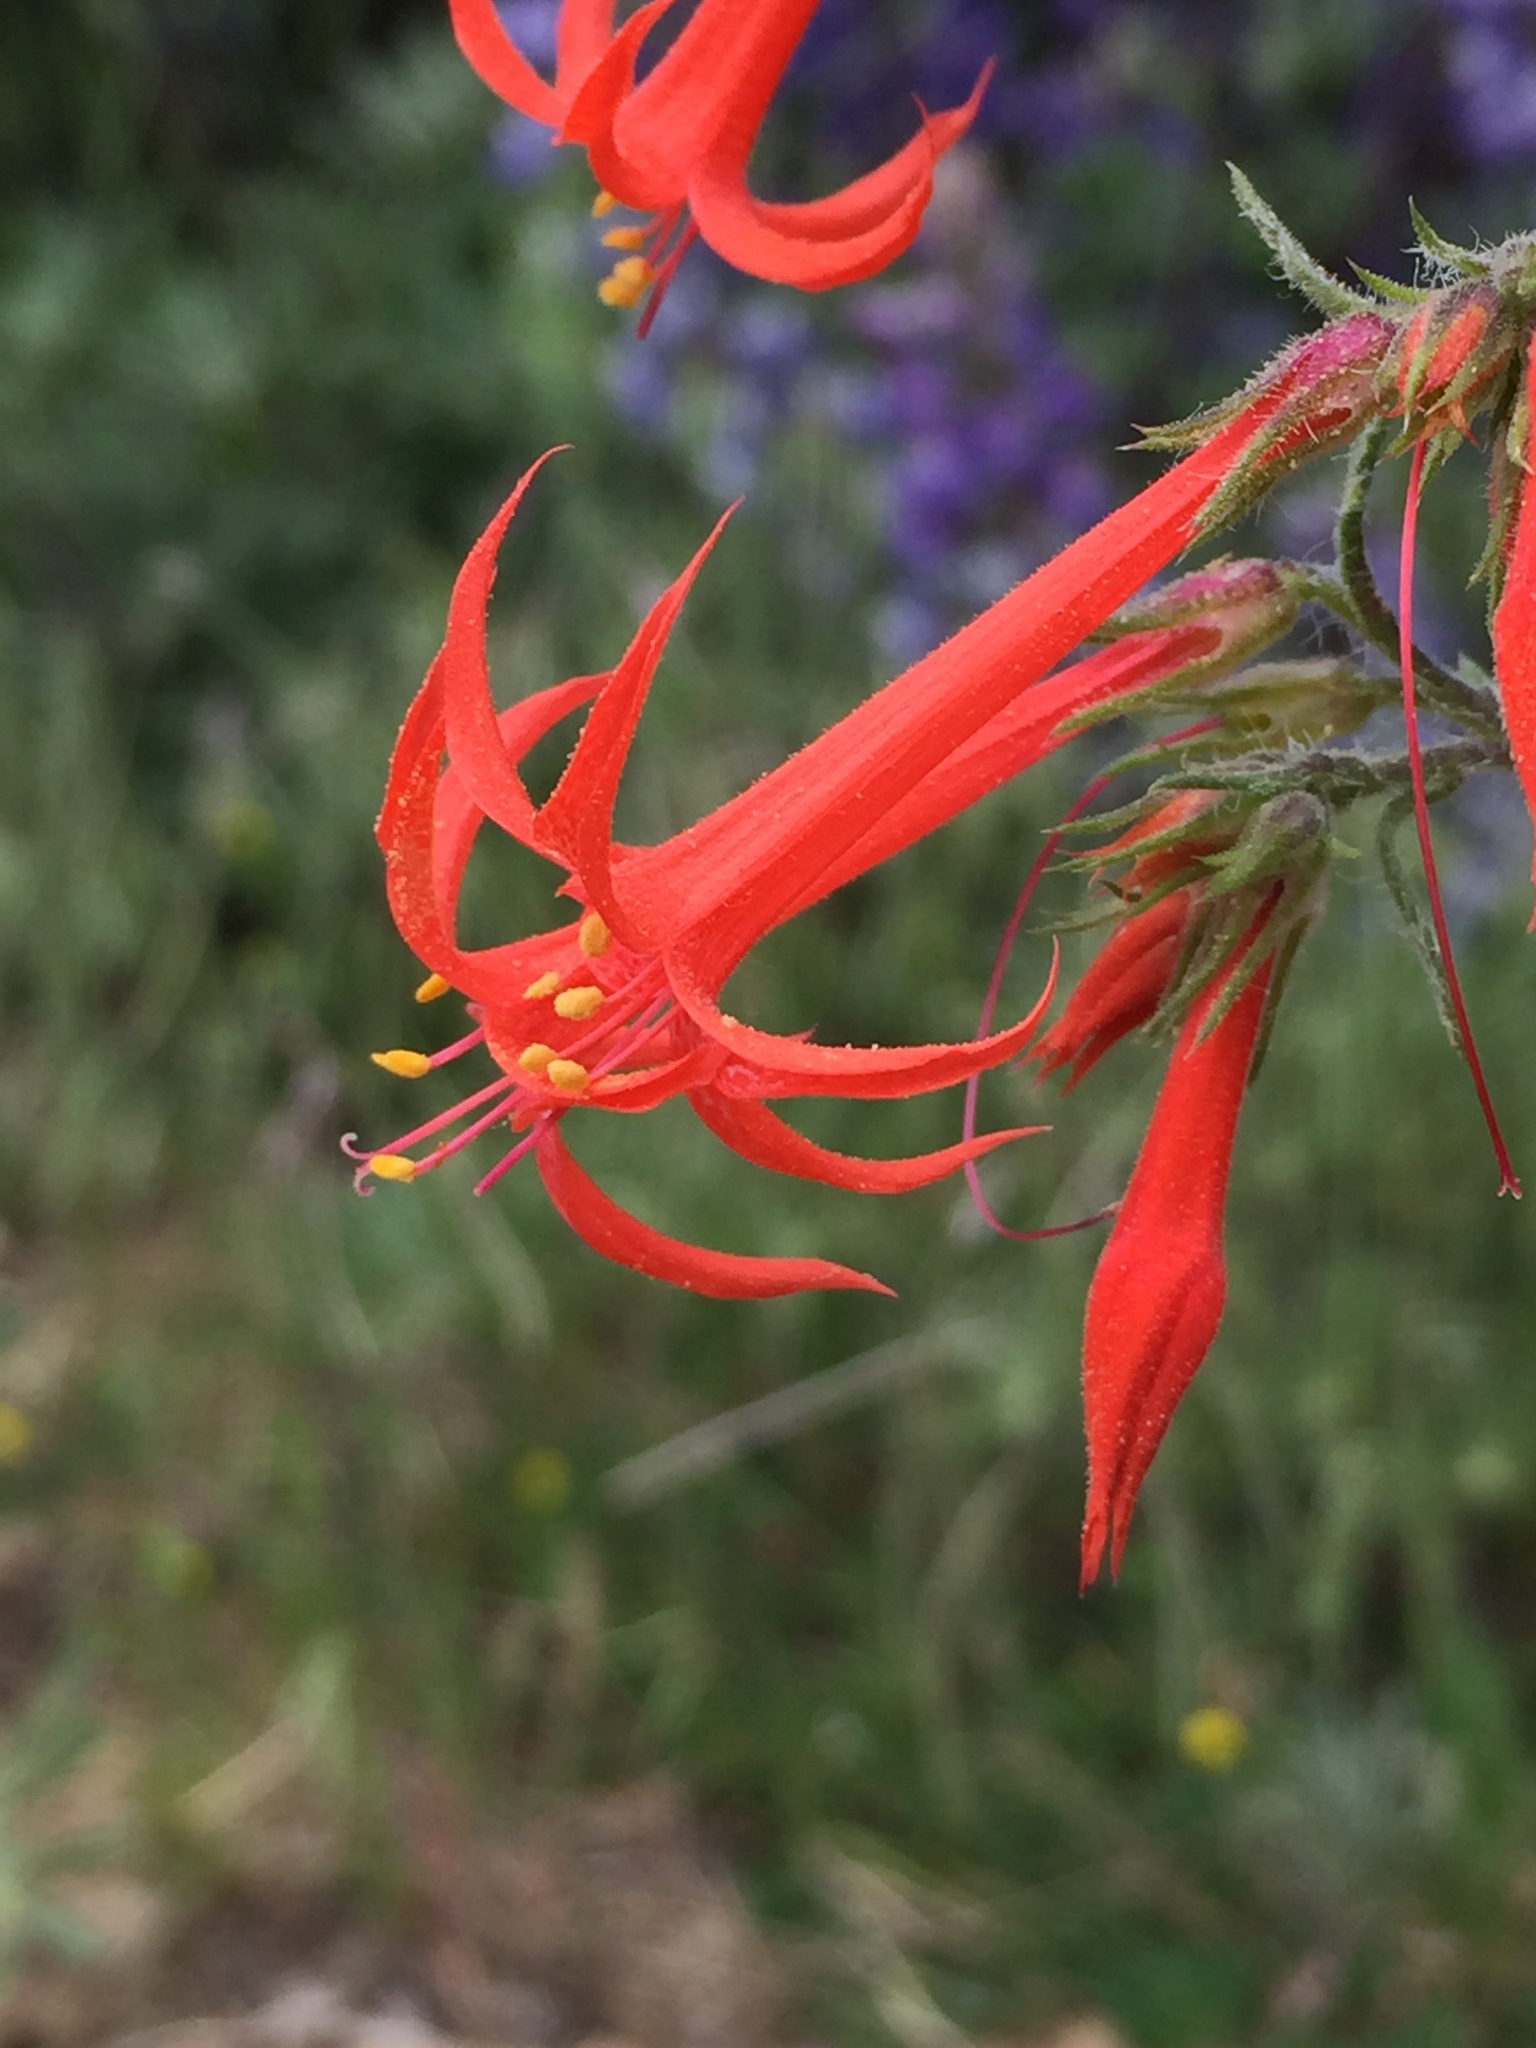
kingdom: Plantae
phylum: Tracheophyta
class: Magnoliopsida
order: Ericales
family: Polemoniaceae
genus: Ipomopsis
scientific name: Ipomopsis aggregata
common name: Scarlet gilia
